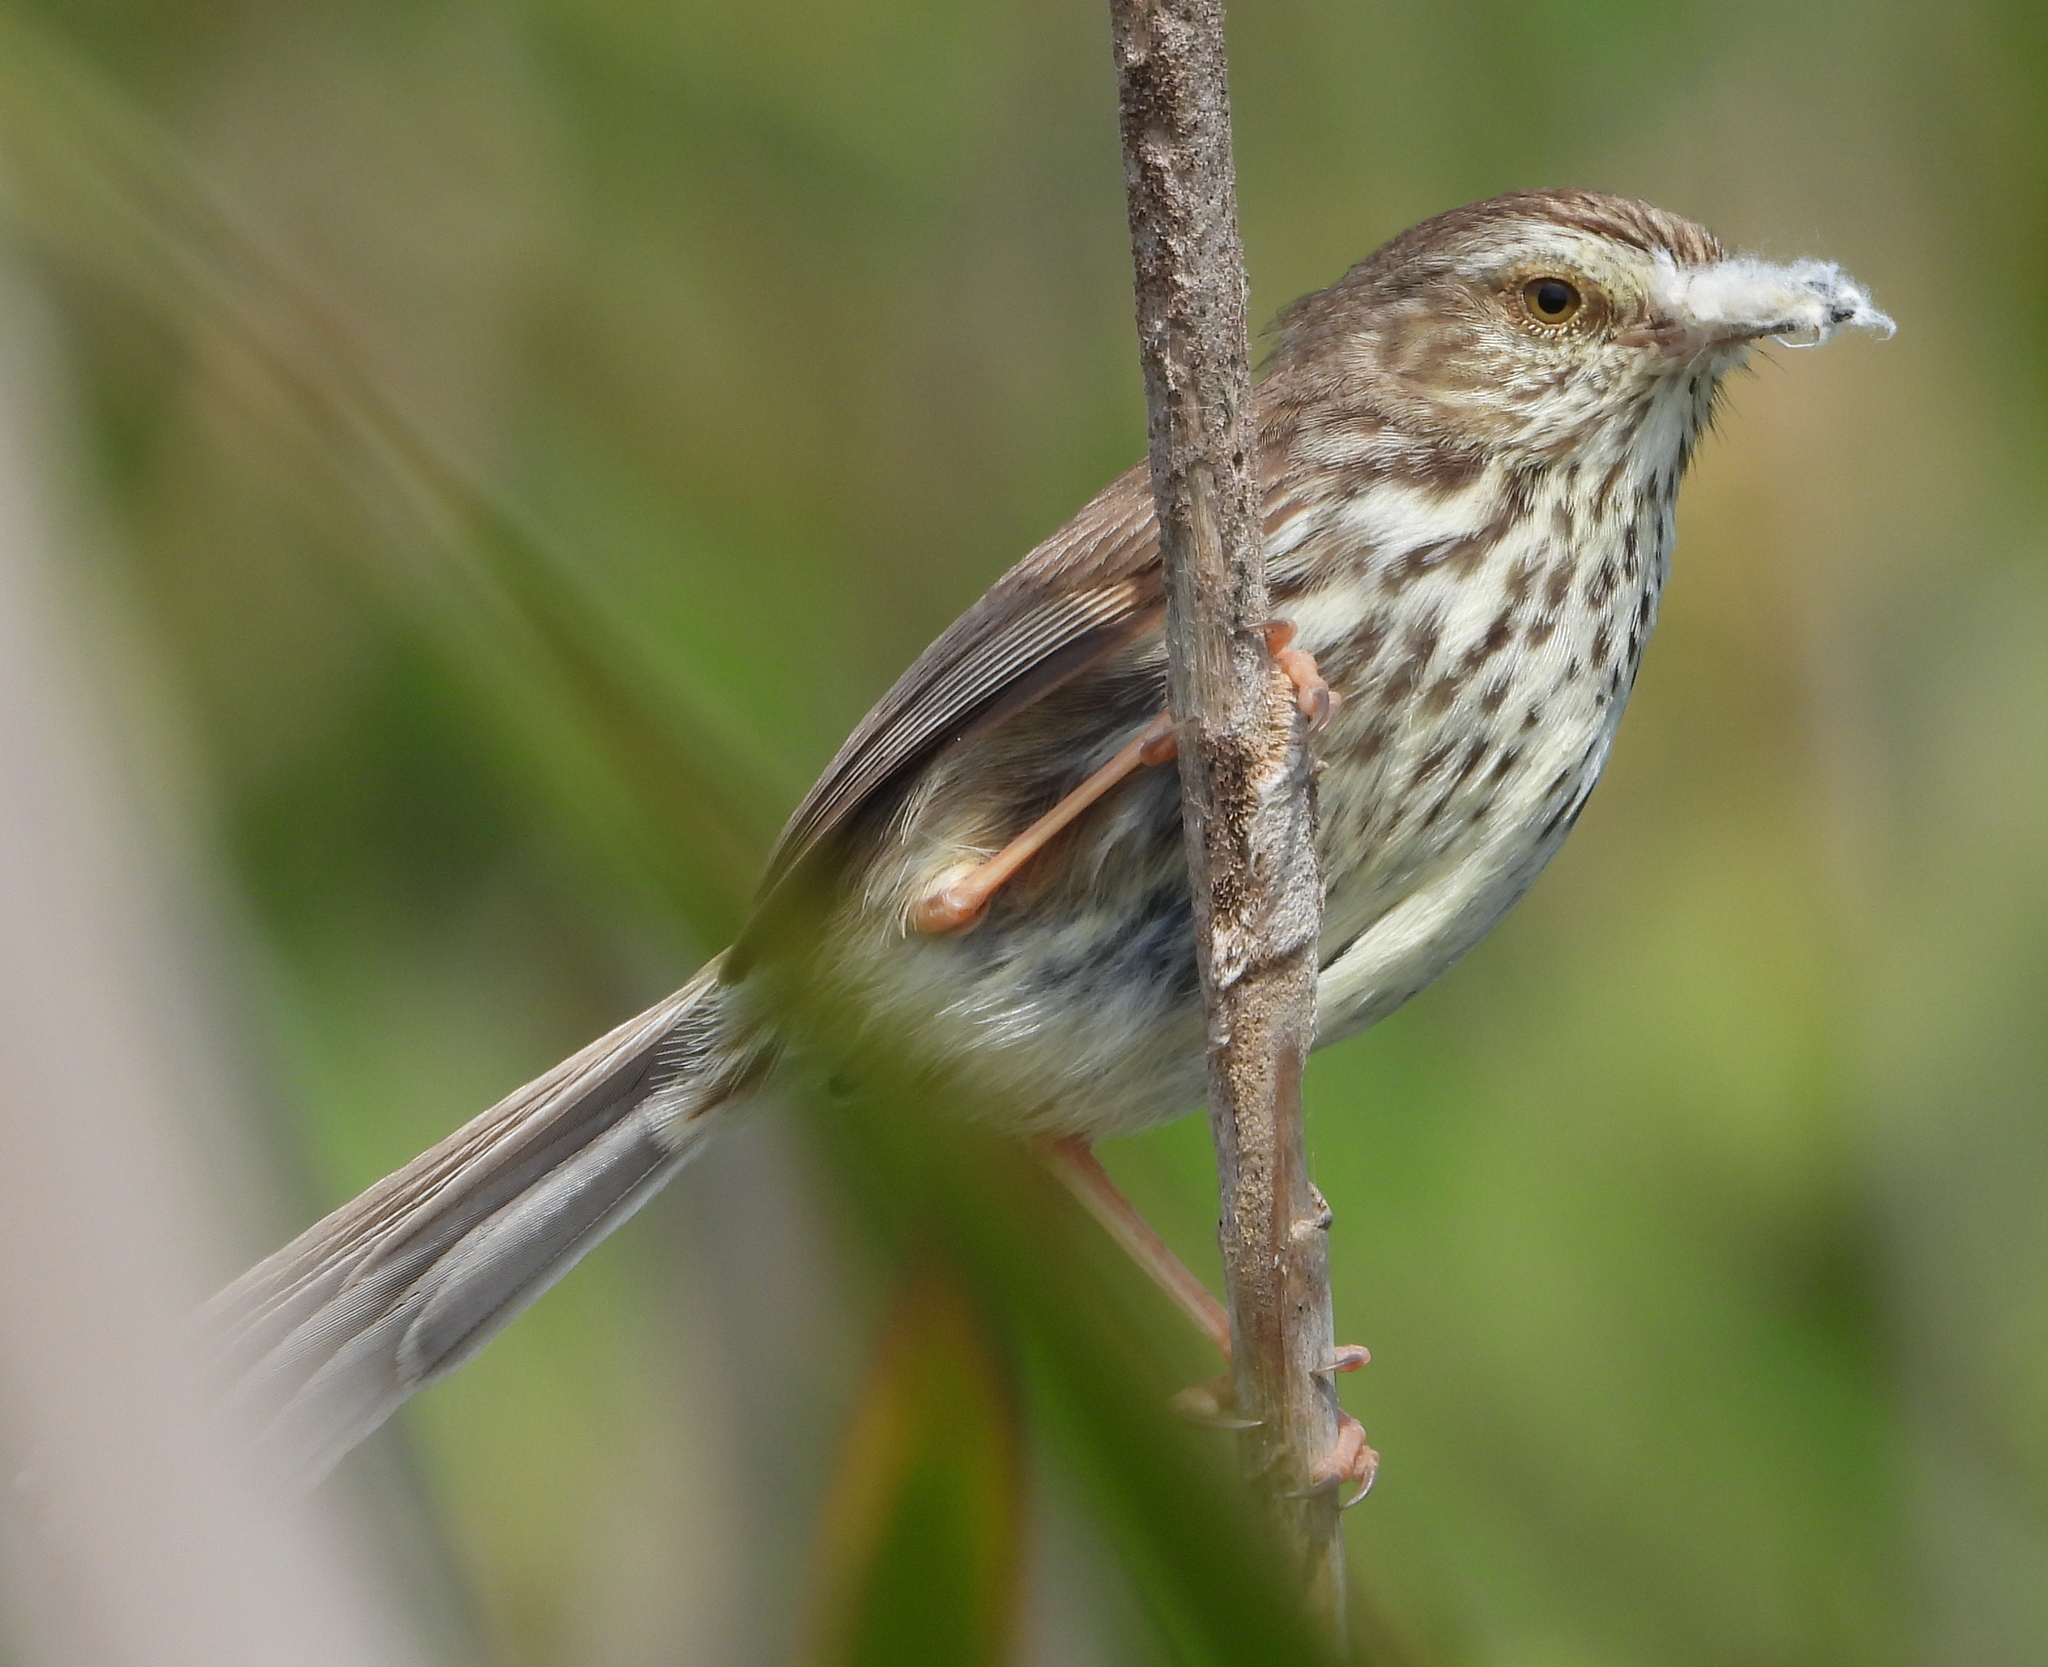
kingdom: Animalia
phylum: Chordata
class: Aves
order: Passeriformes
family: Cisticolidae
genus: Prinia
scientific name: Prinia maculosa
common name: Karoo prinia
